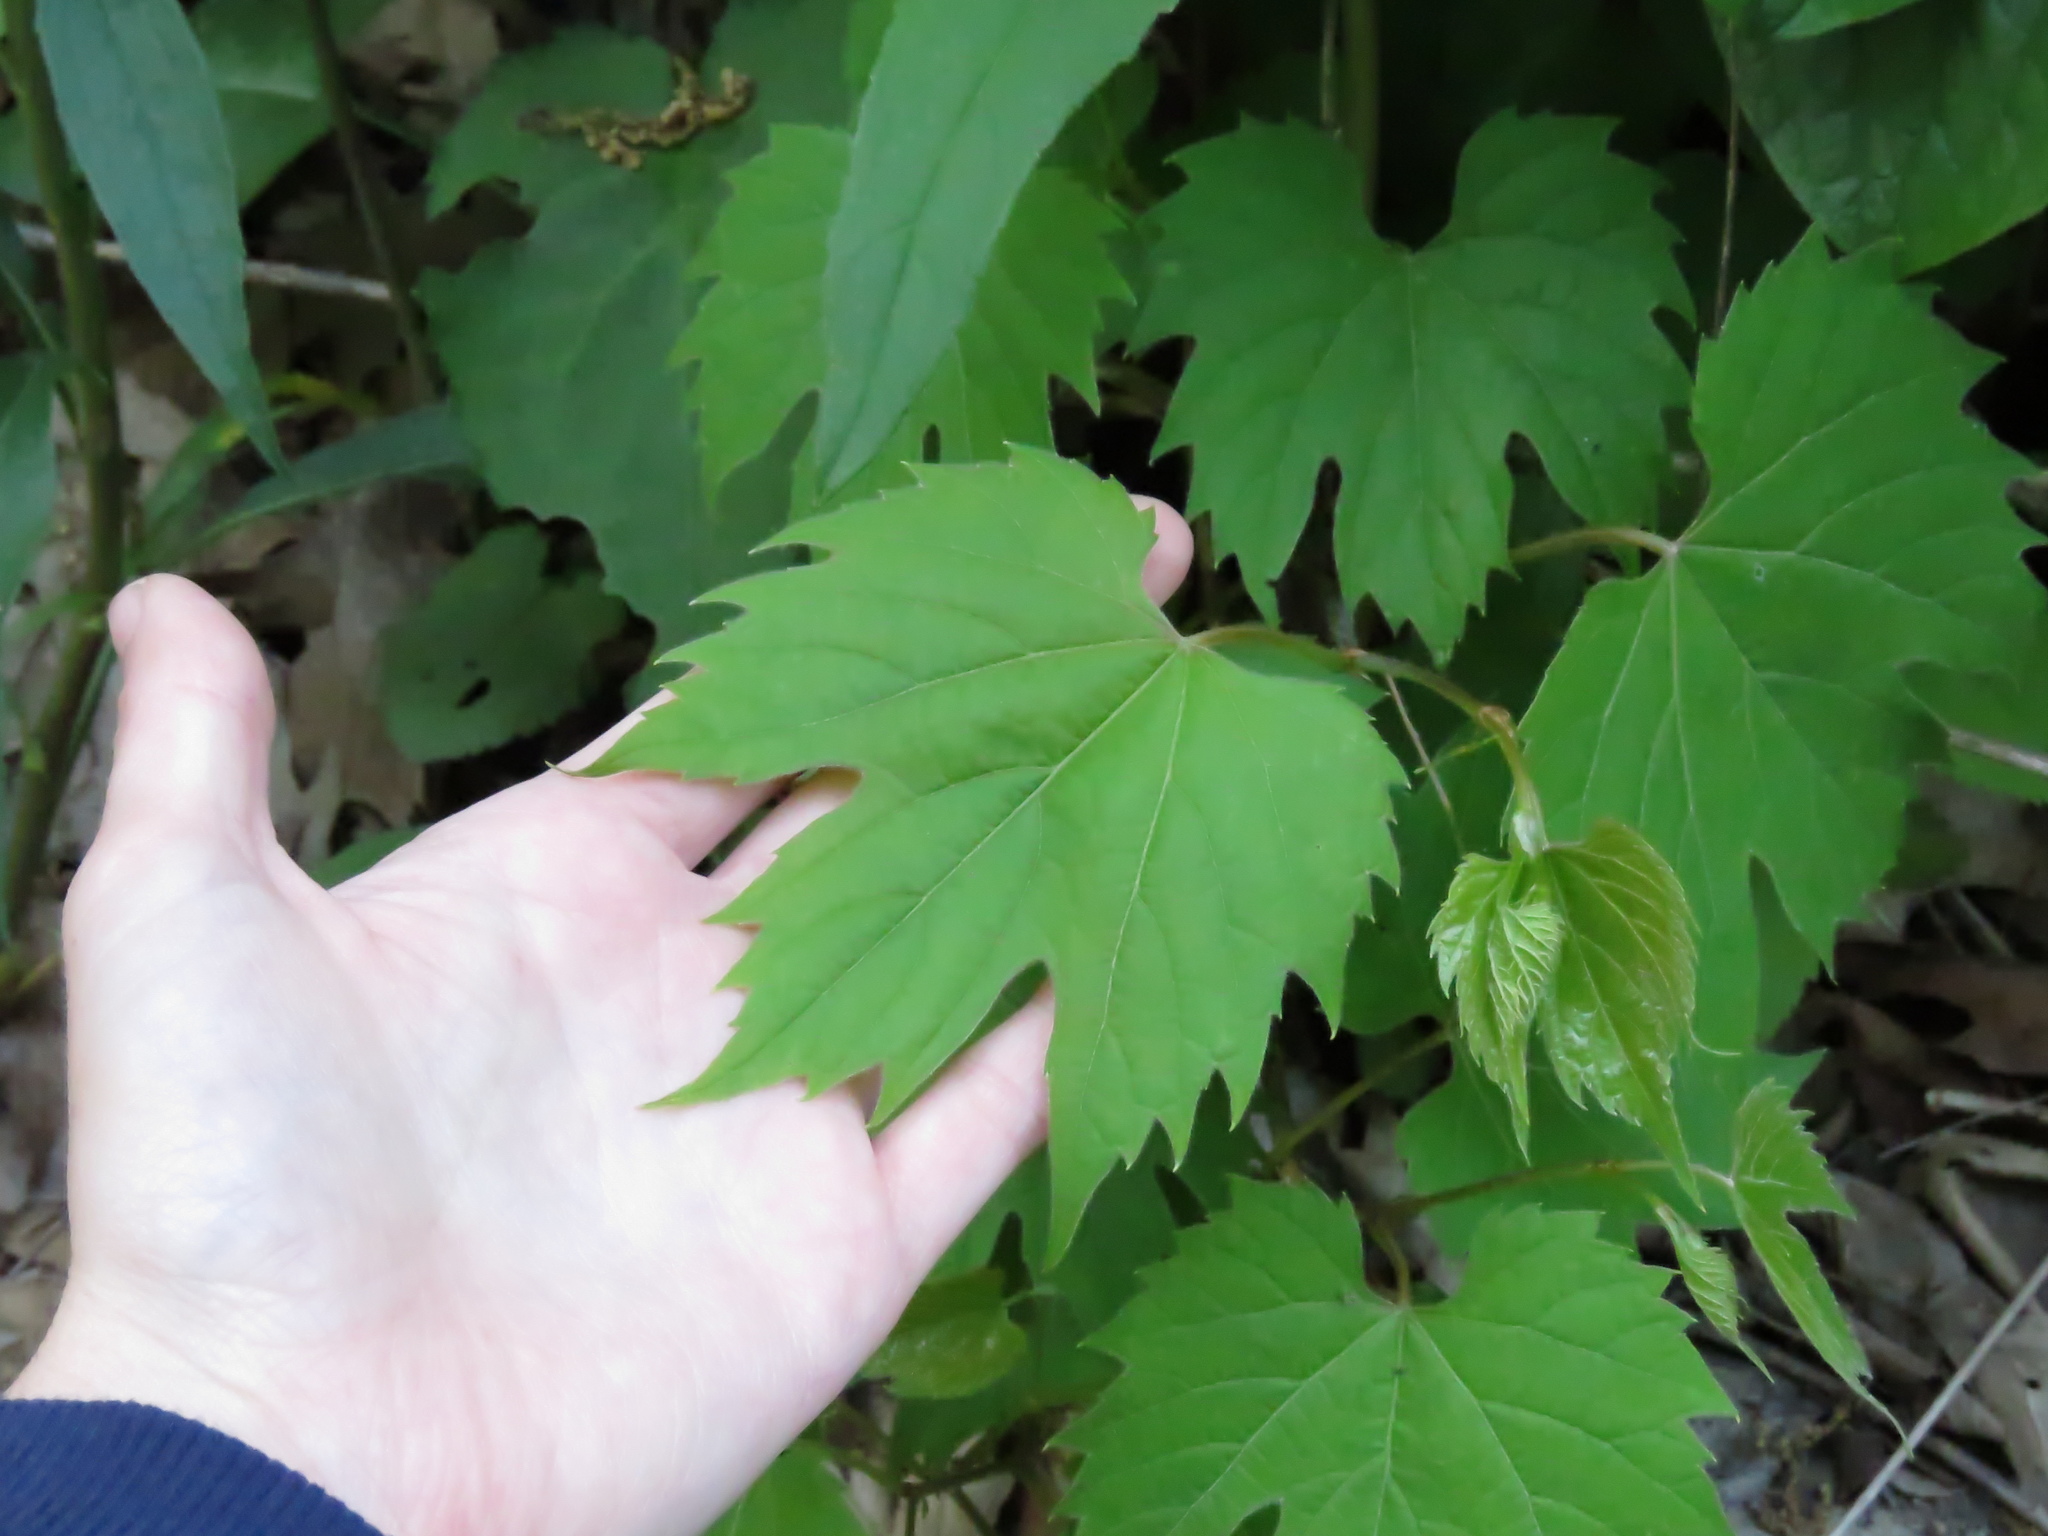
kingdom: Plantae
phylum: Tracheophyta
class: Magnoliopsida
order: Vitales
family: Vitaceae
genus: Vitis
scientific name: Vitis riparia
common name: Frost grape
